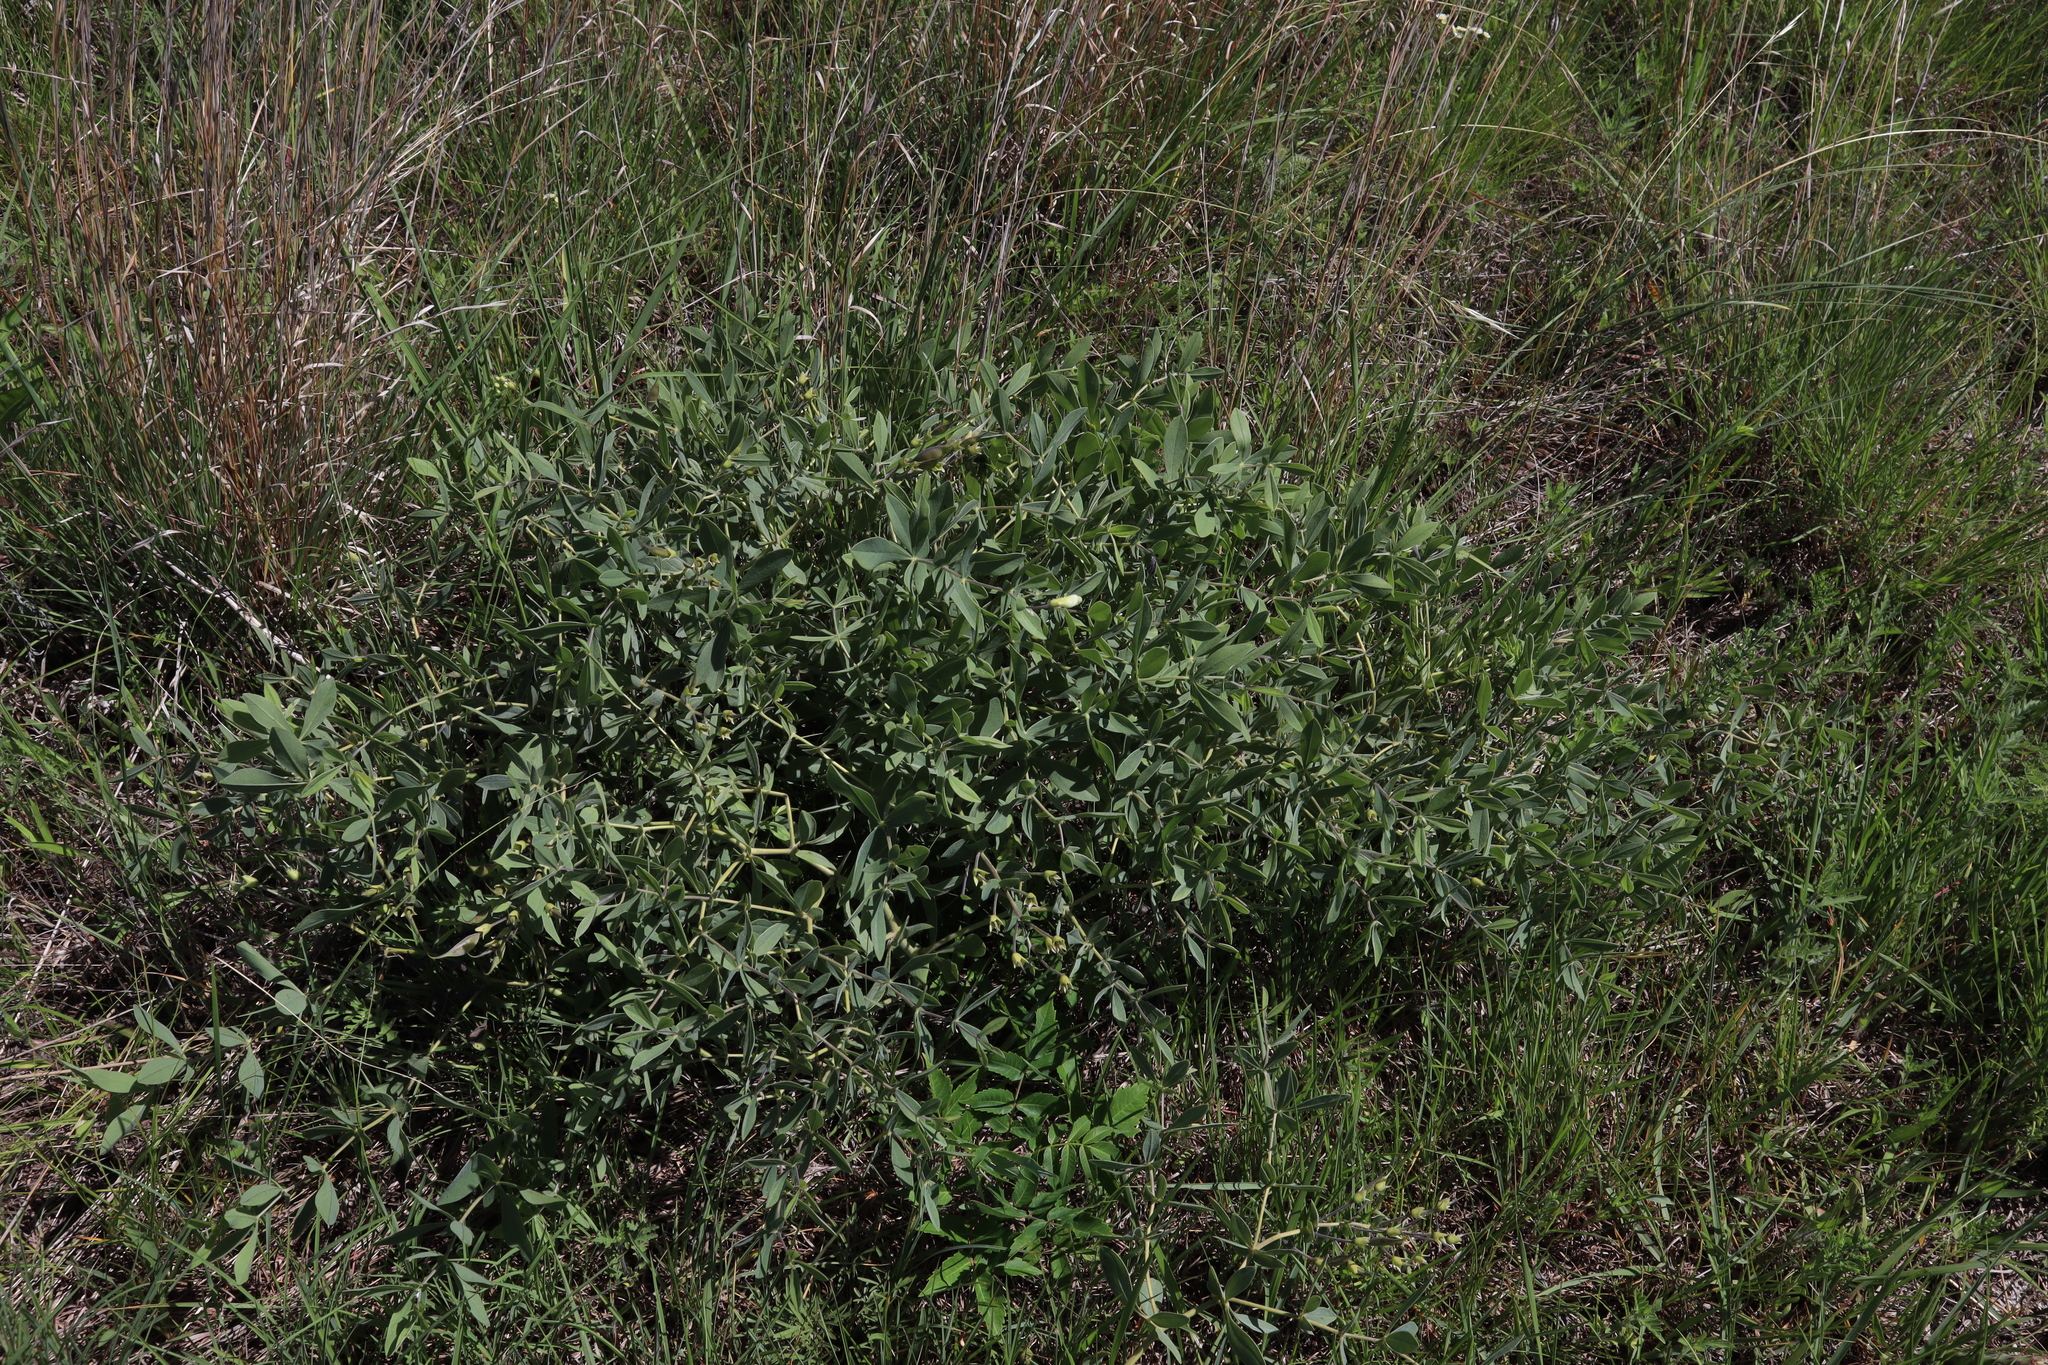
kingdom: Plantae
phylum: Tracheophyta
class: Magnoliopsida
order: Fabales
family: Fabaceae
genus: Baptisia
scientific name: Baptisia bracteata
